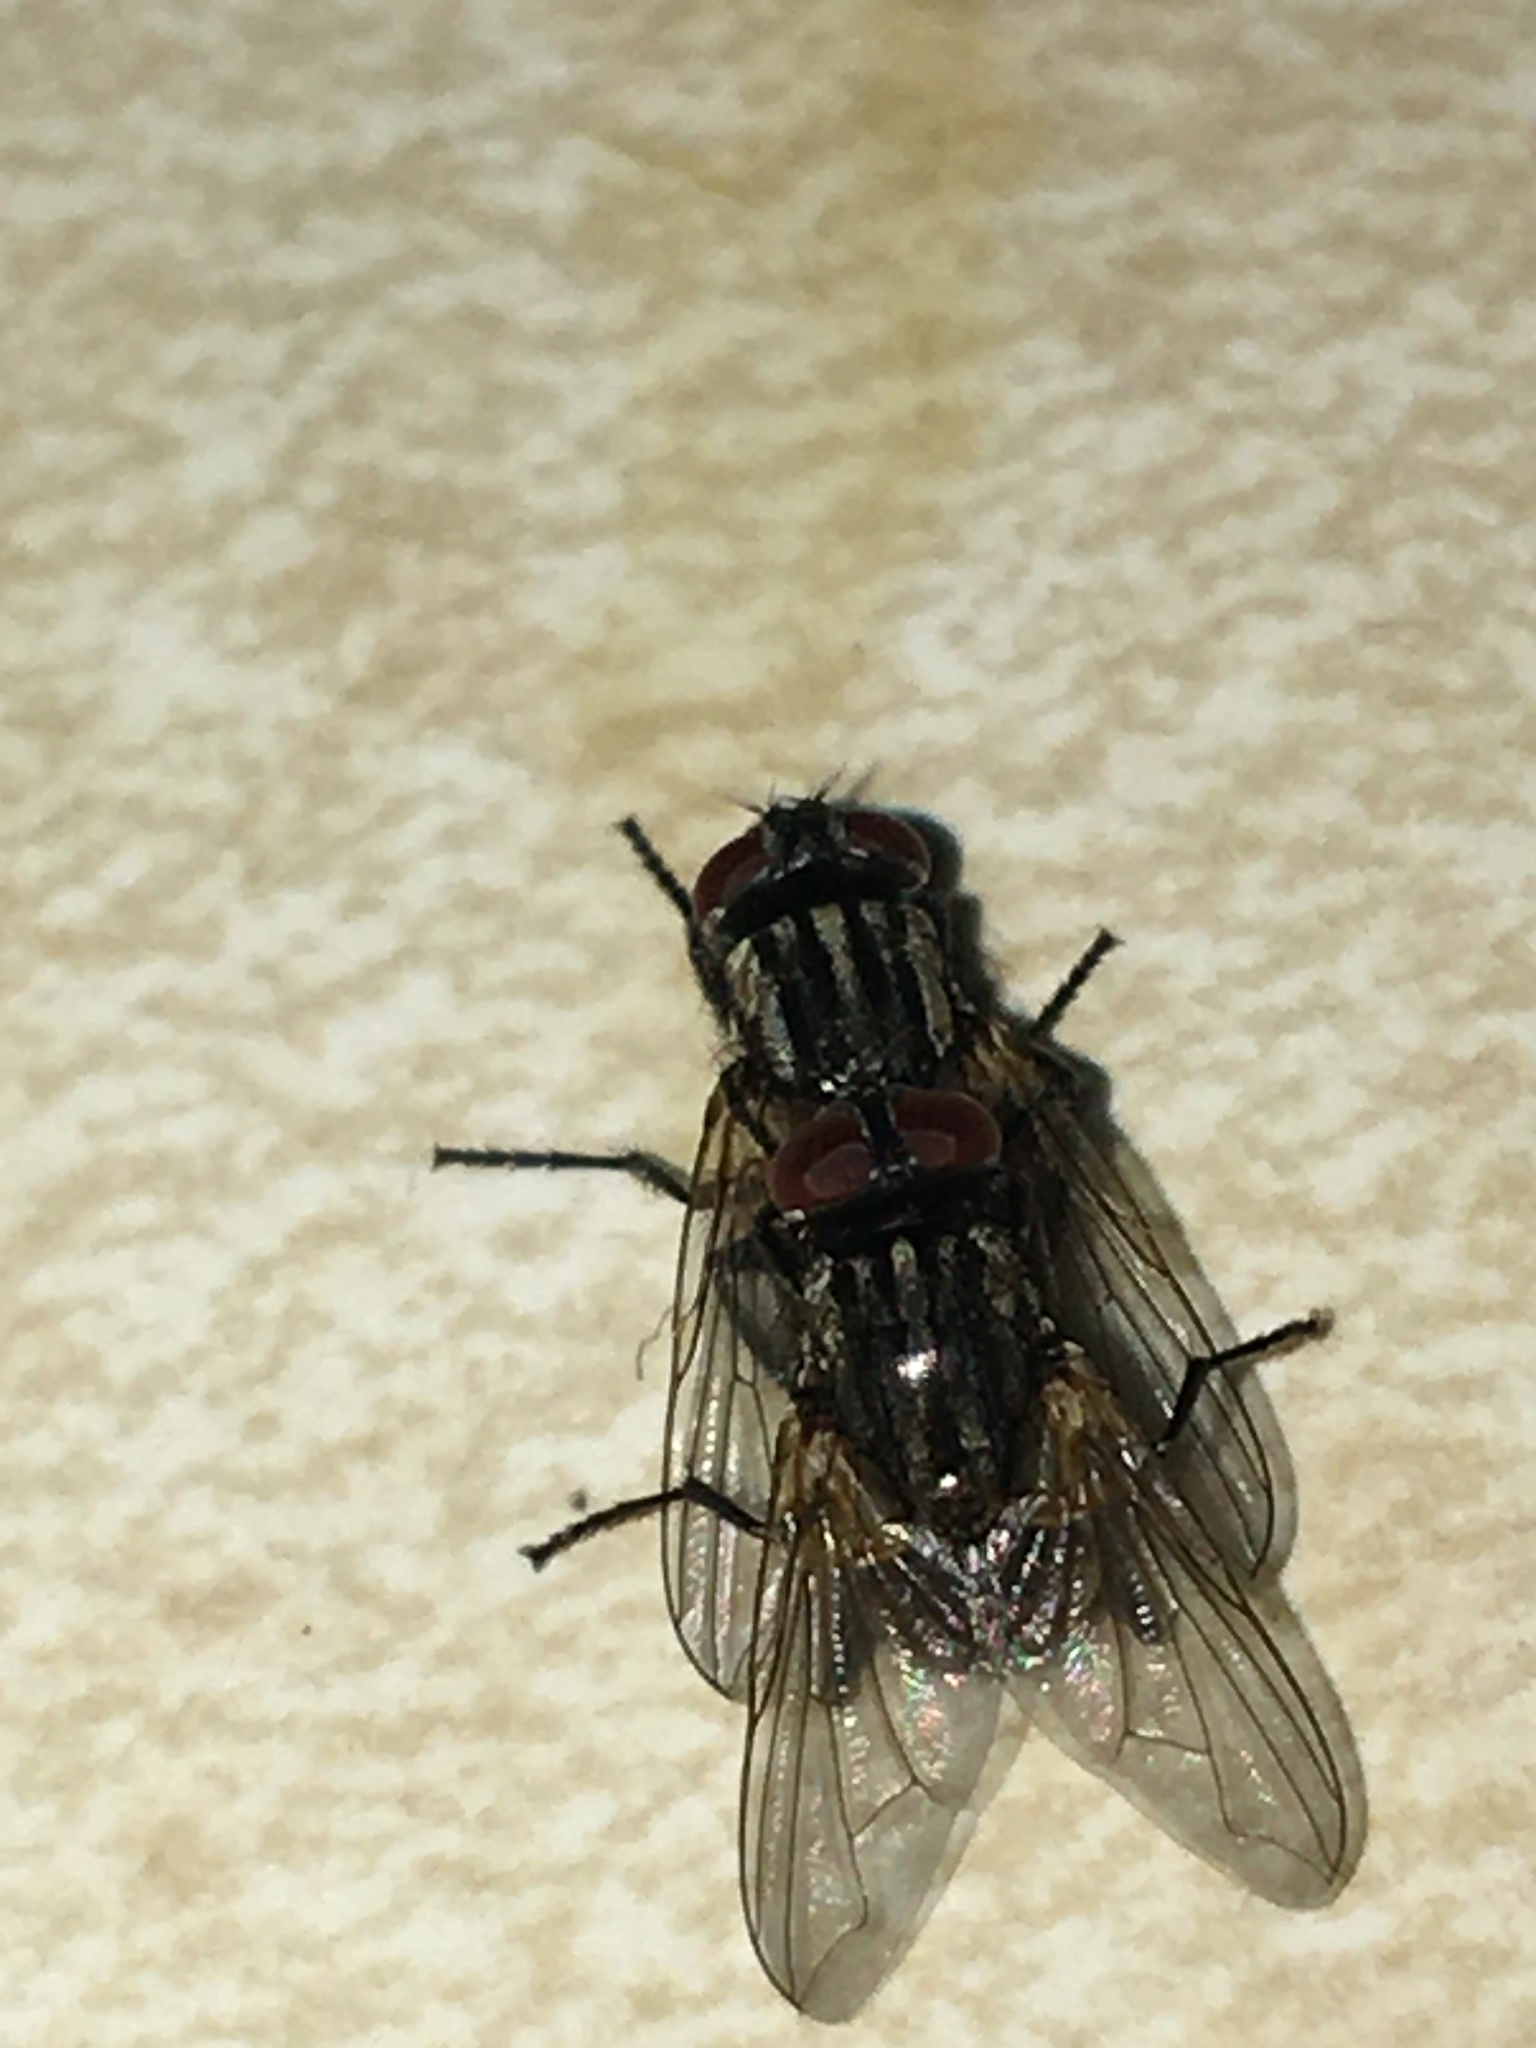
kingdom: Animalia
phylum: Arthropoda
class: Insecta
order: Diptera
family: Muscidae
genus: Musca
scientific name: Musca domestica
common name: House fly
